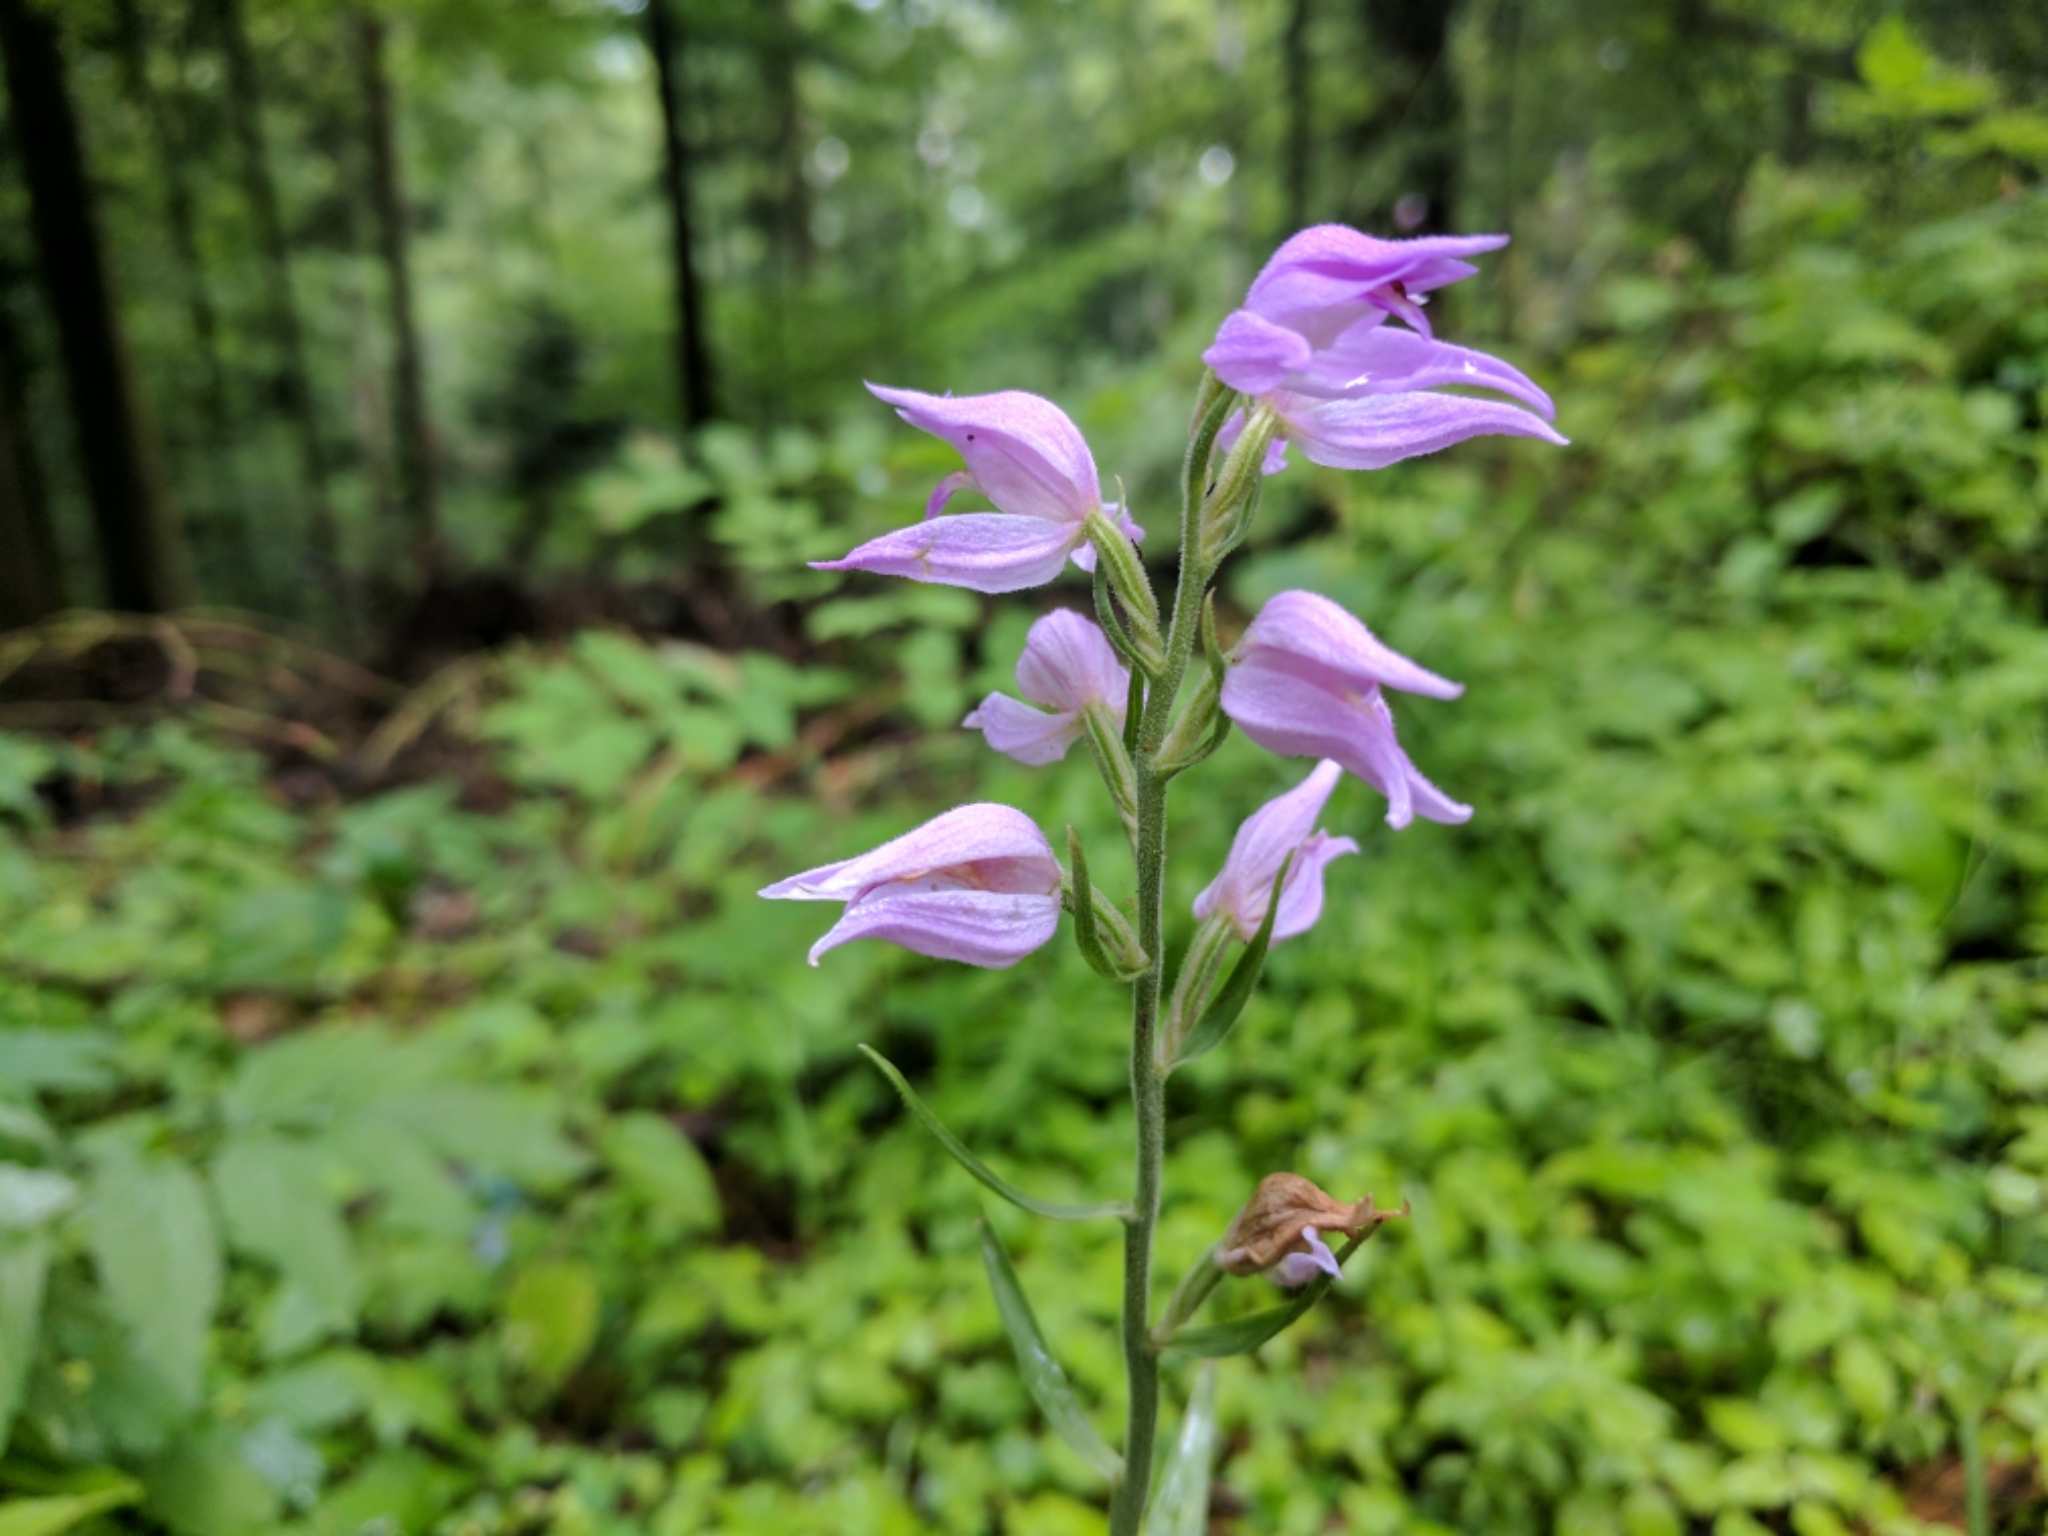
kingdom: Plantae
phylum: Tracheophyta
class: Liliopsida
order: Asparagales
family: Orchidaceae
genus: Cephalanthera
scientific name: Cephalanthera rubra
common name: Red helleborine
